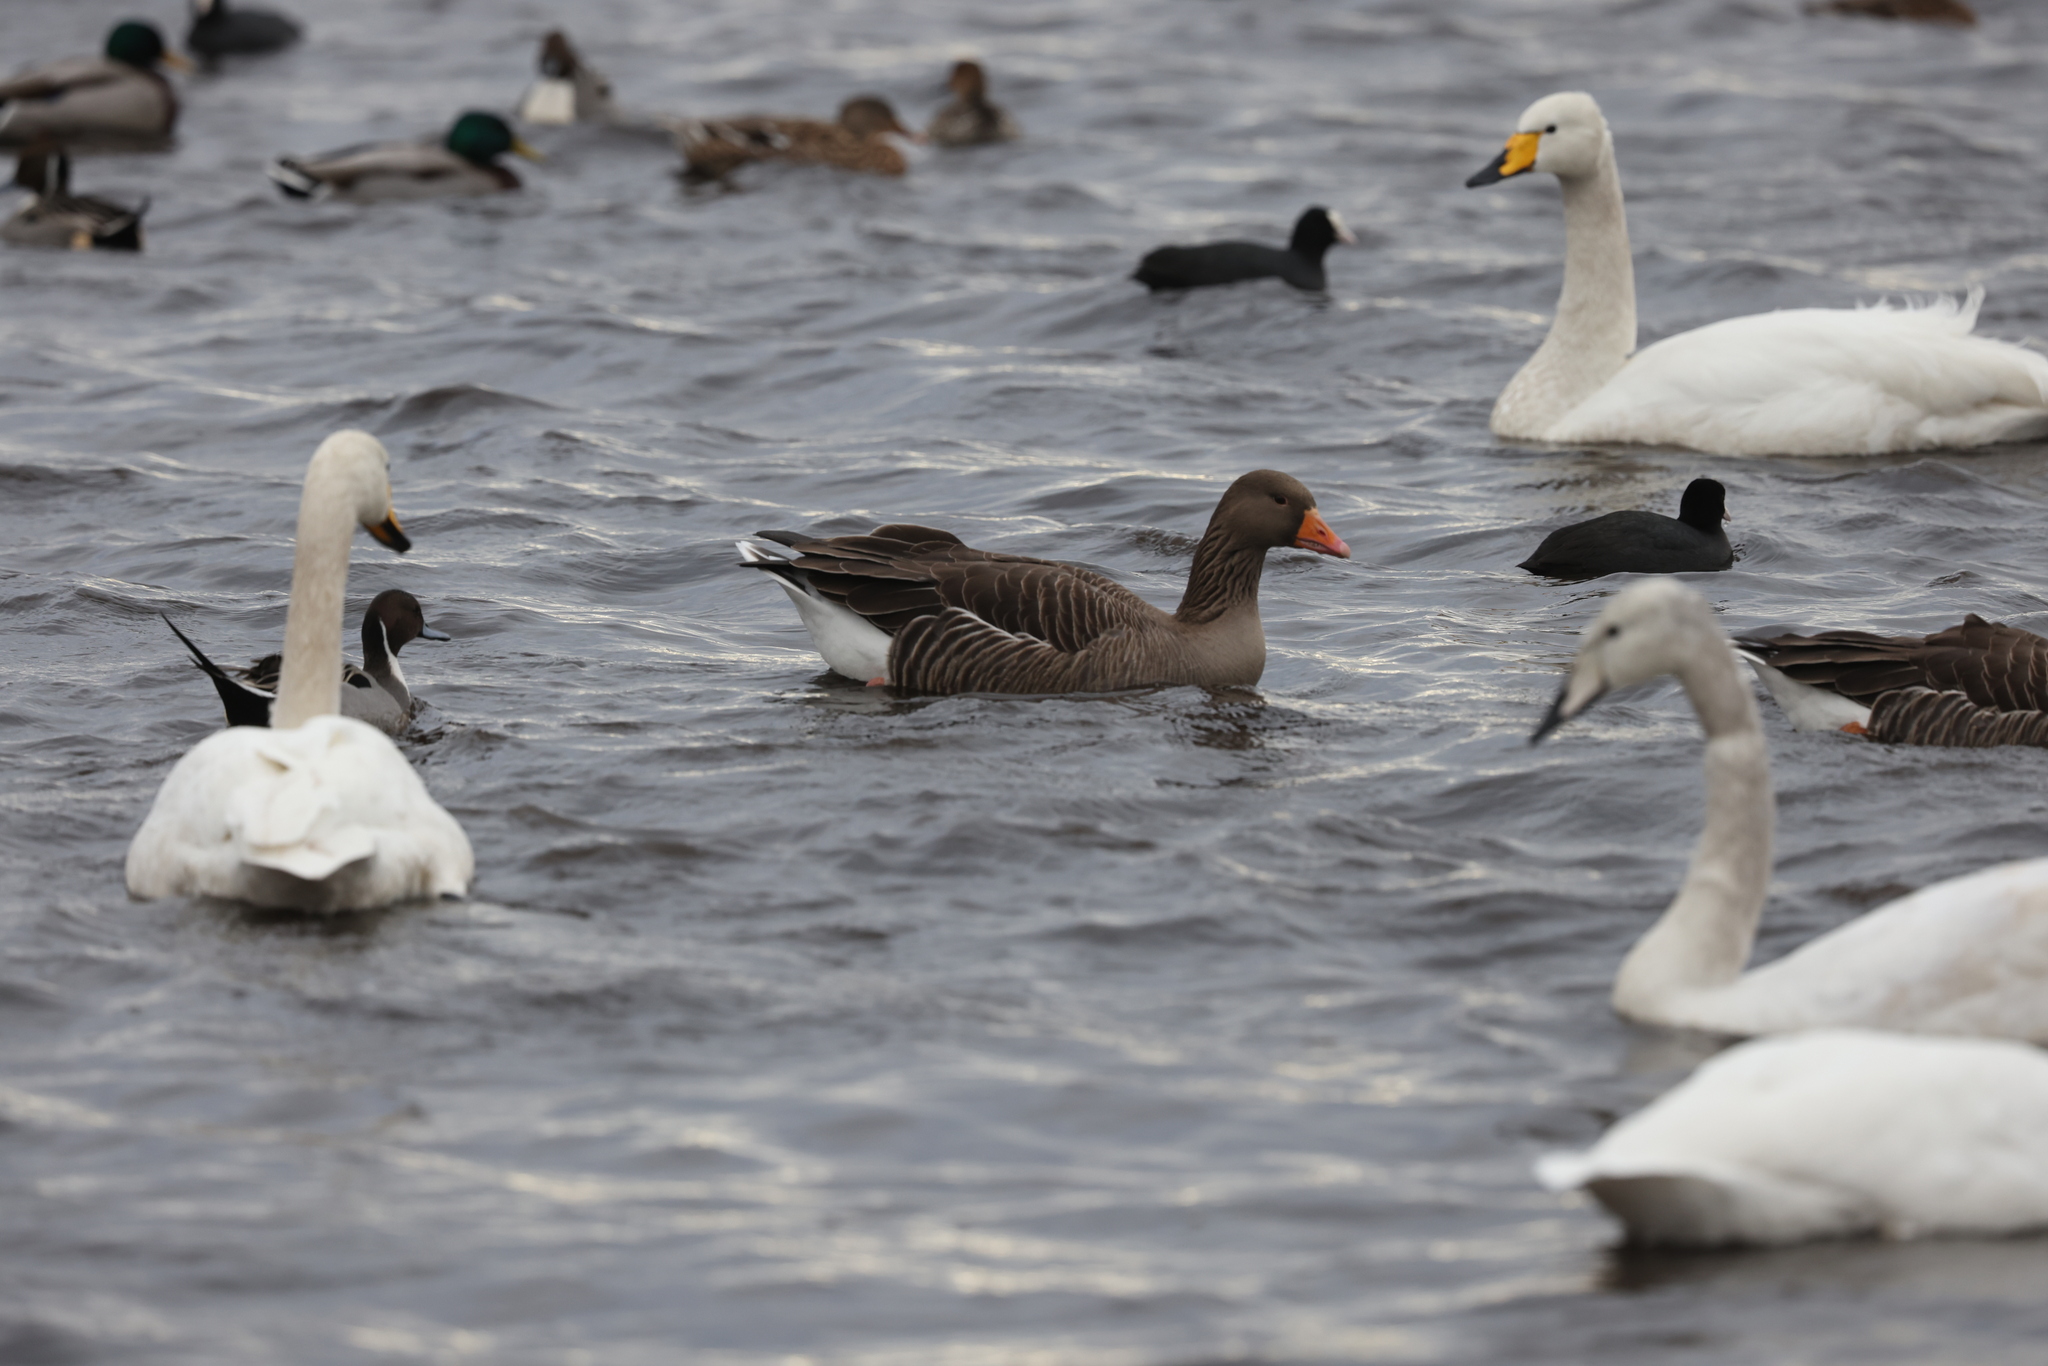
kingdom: Animalia
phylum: Chordata
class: Aves
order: Anseriformes
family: Anatidae
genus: Anser
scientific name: Anser anser
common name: Greylag goose
